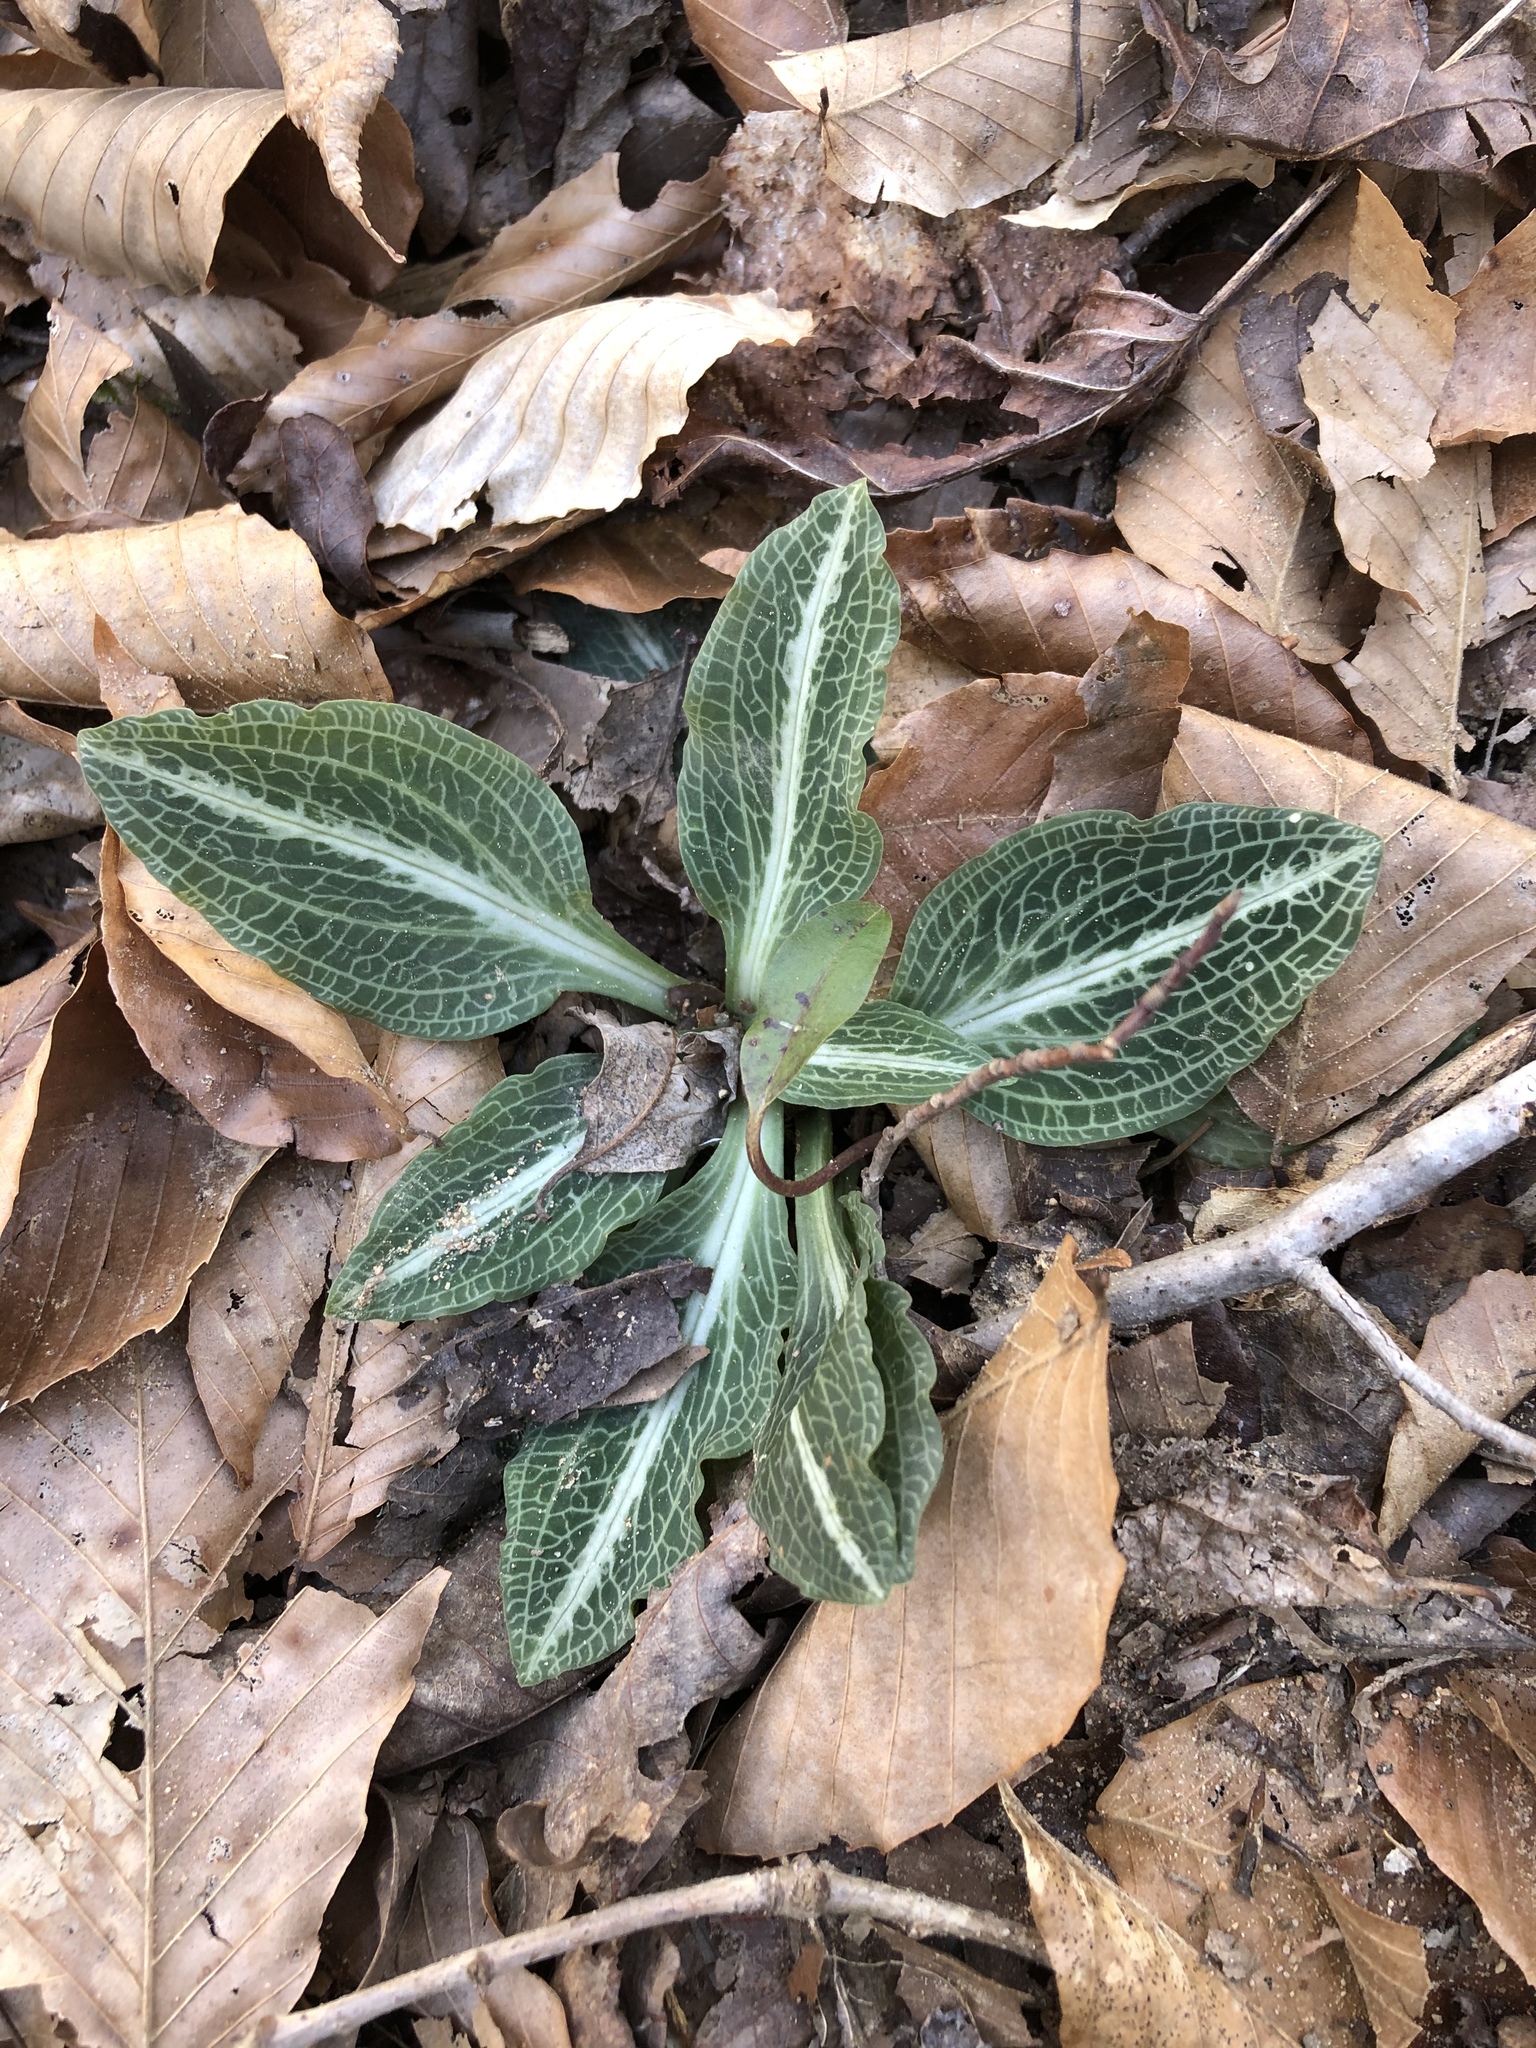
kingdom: Plantae
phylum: Tracheophyta
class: Liliopsida
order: Asparagales
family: Orchidaceae
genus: Goodyera
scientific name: Goodyera pubescens
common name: Downy rattlesnake-plantain
